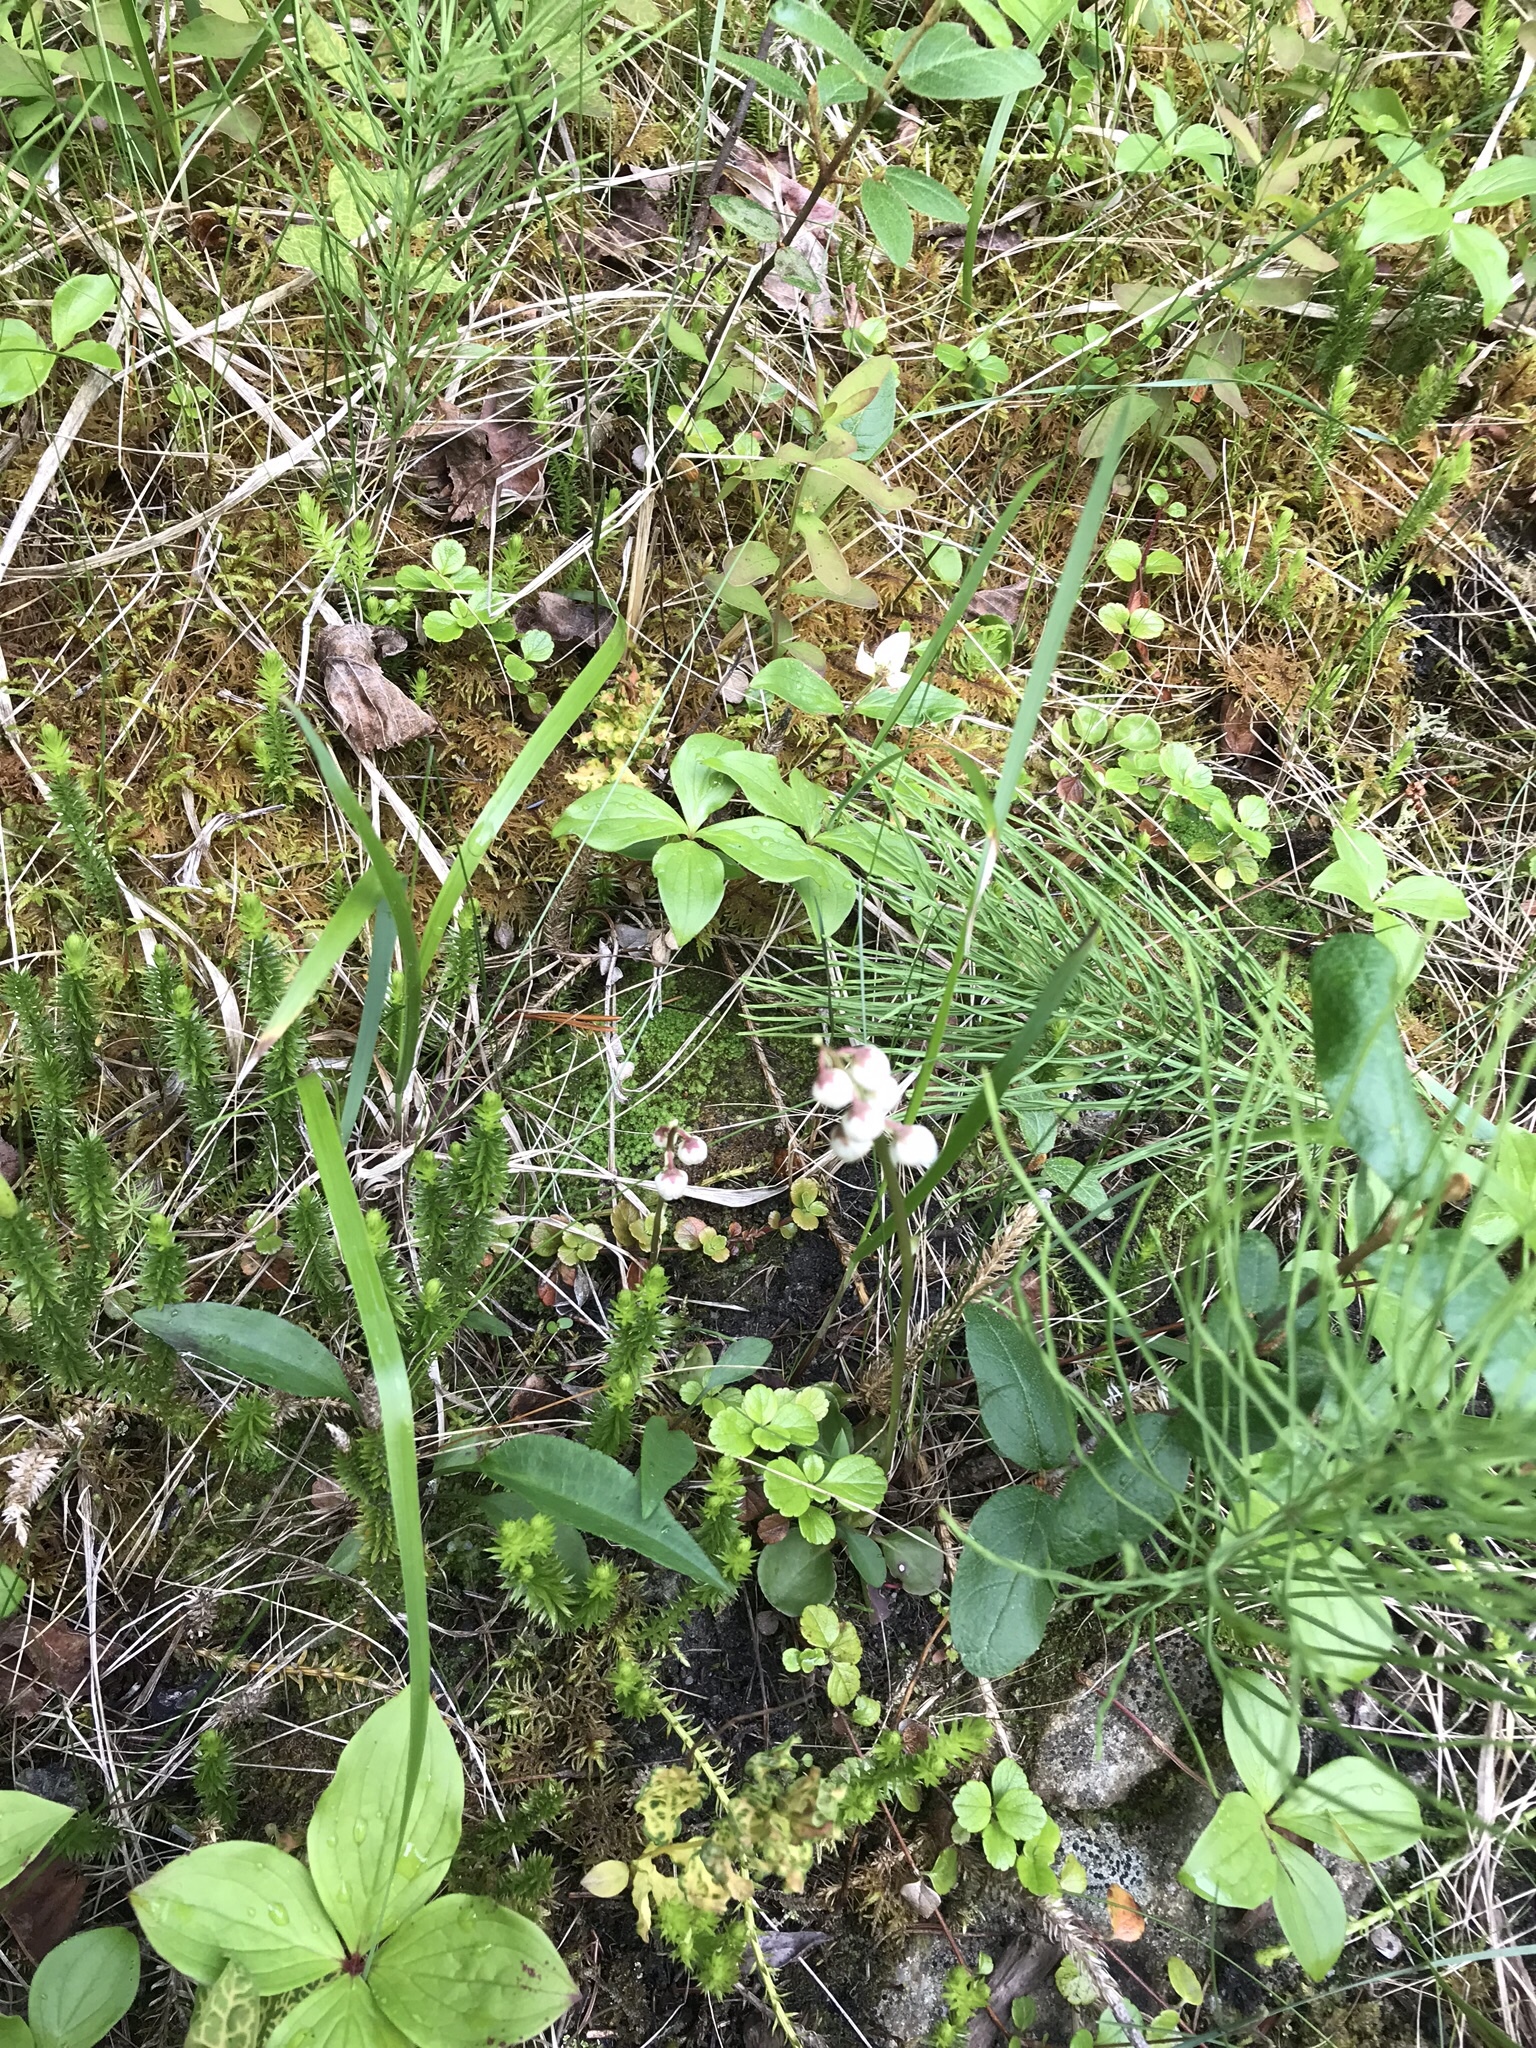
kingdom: Plantae
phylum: Tracheophyta
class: Magnoliopsida
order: Ericales
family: Ericaceae
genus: Pyrola
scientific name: Pyrola minor
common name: Common wintergreen
